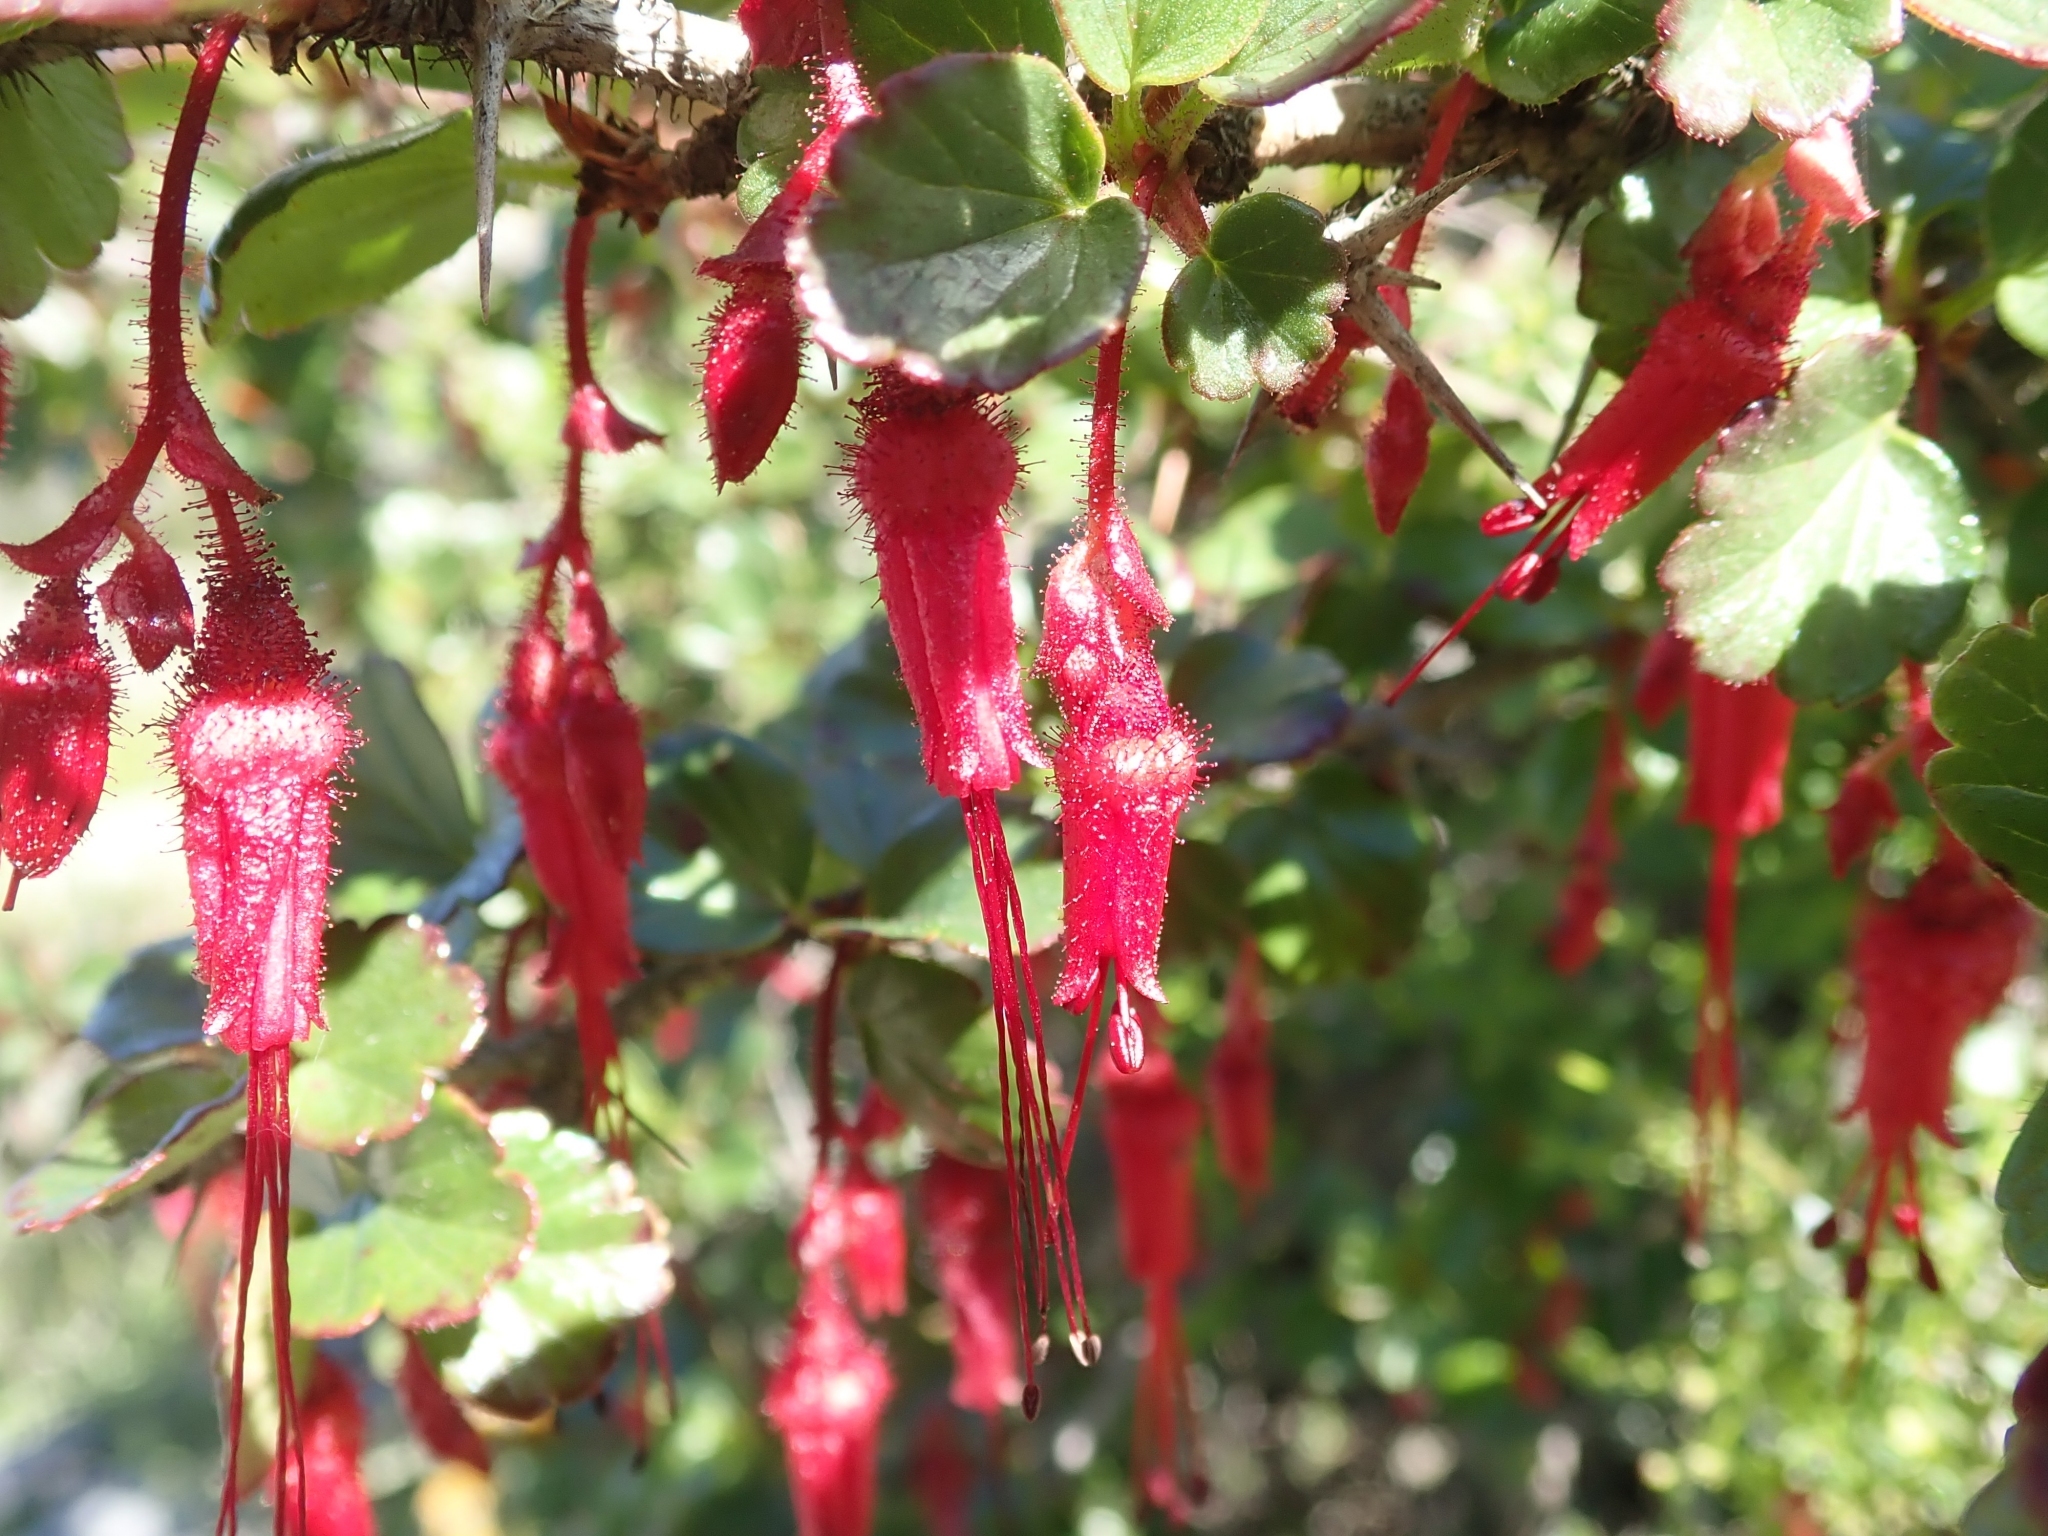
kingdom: Plantae
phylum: Tracheophyta
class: Magnoliopsida
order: Saxifragales
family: Grossulariaceae
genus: Ribes
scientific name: Ribes speciosum
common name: Fuchsia-flower gooseberry
